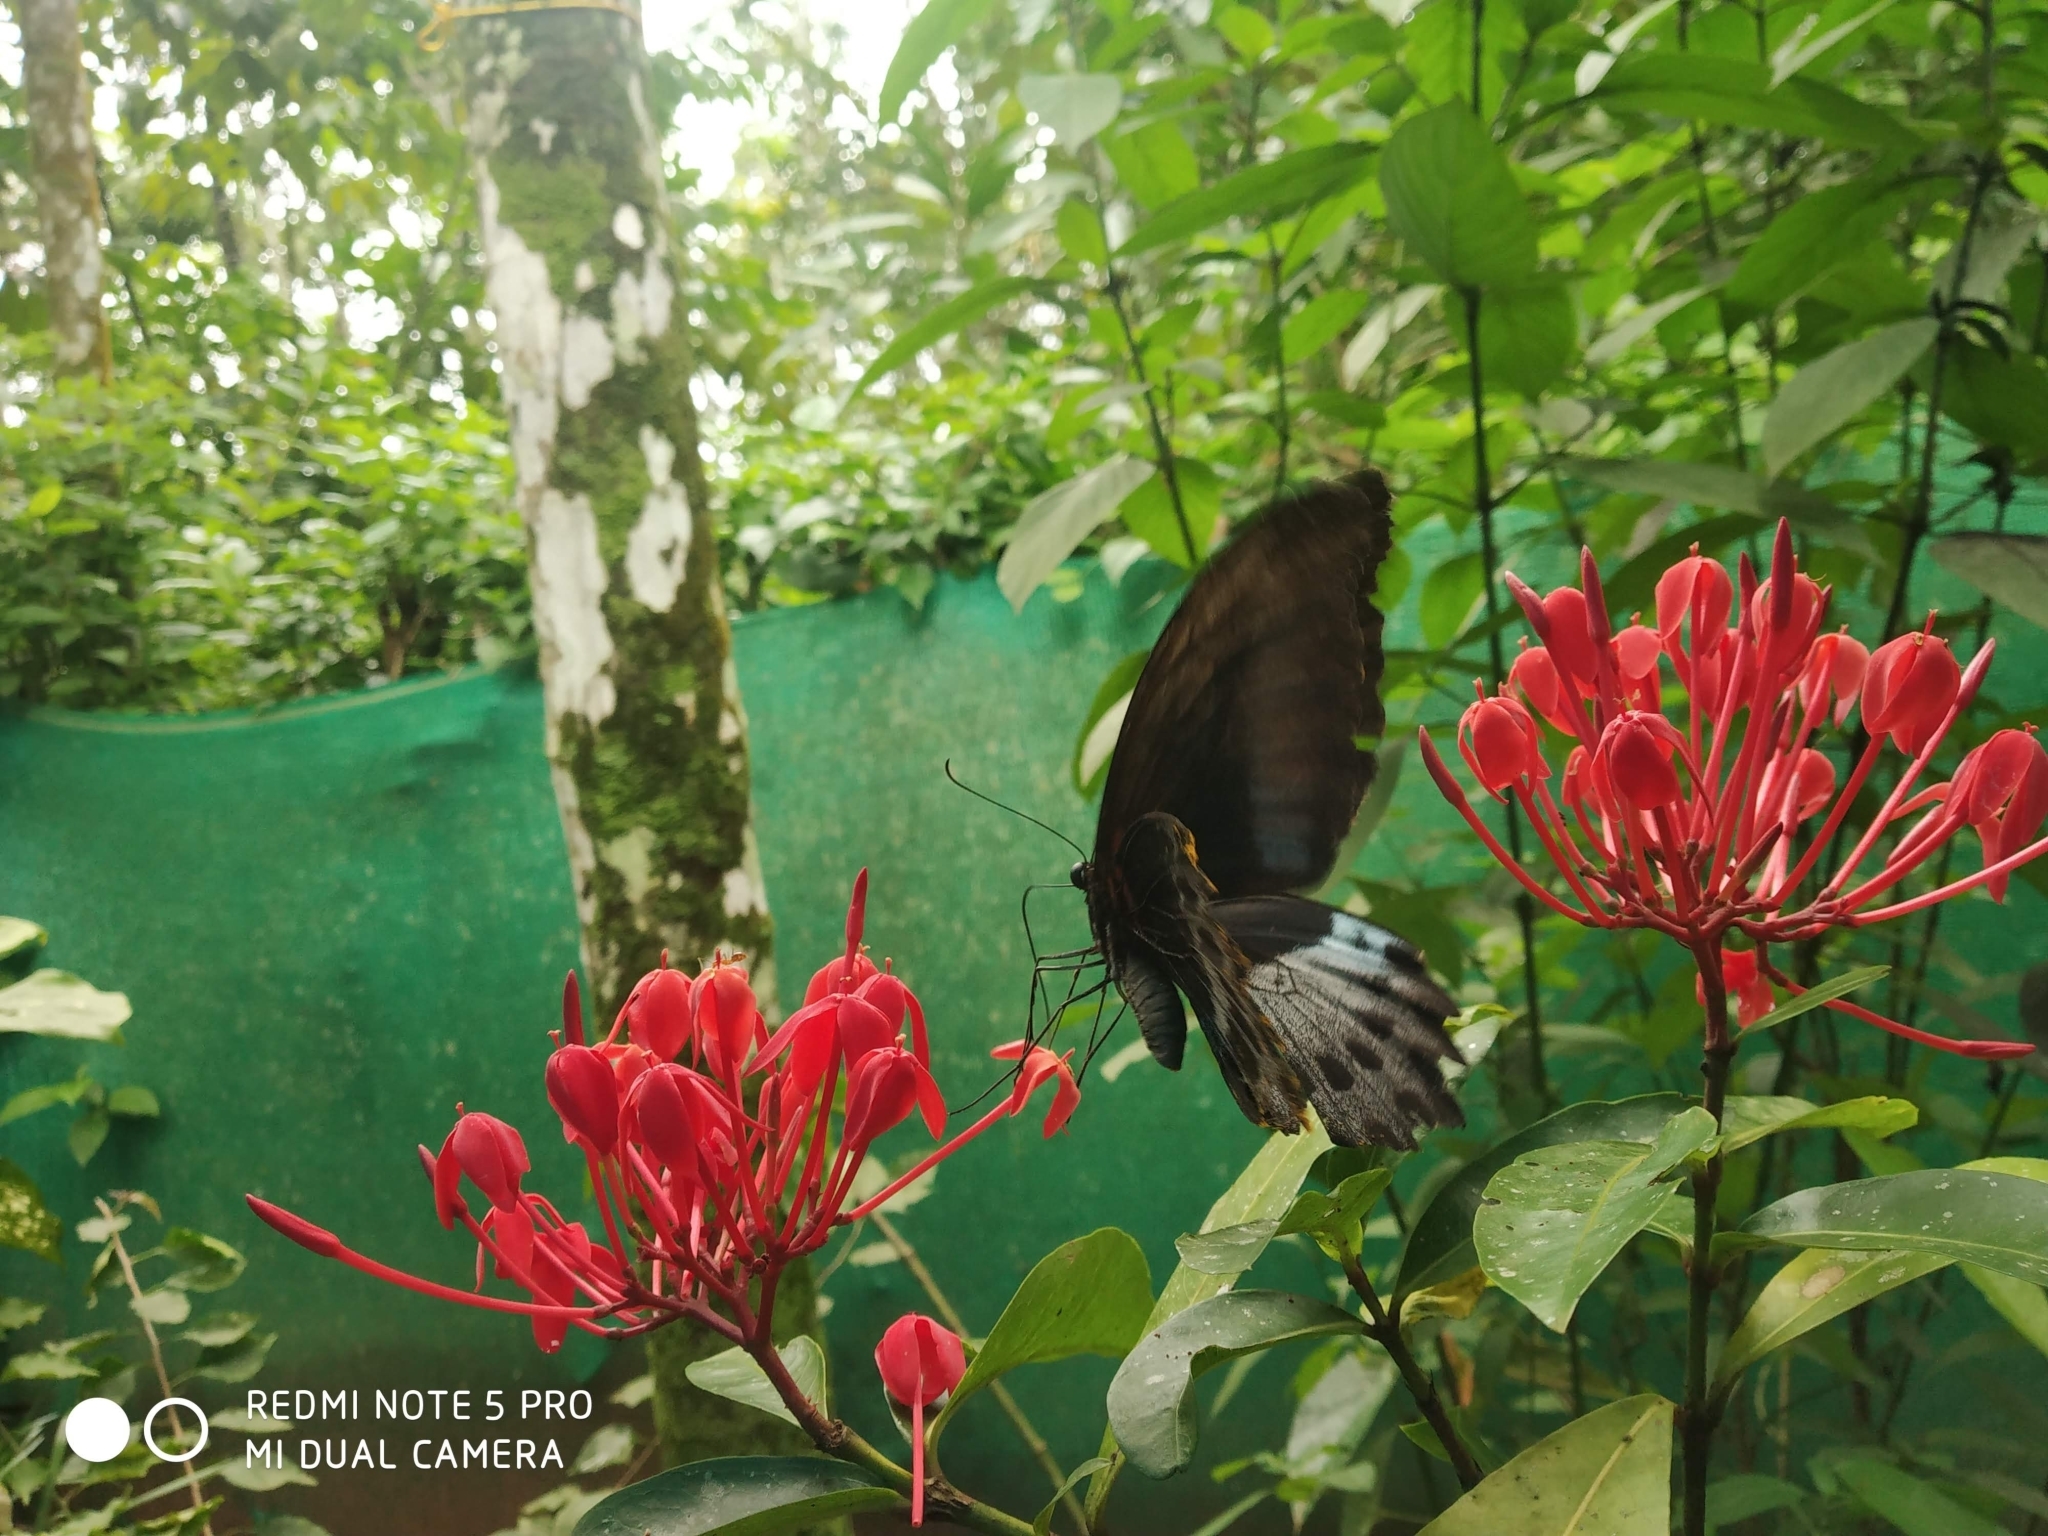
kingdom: Animalia
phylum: Arthropoda
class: Insecta
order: Lepidoptera
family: Papilionidae
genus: Papilio
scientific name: Papilio memnon
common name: Great mormon
